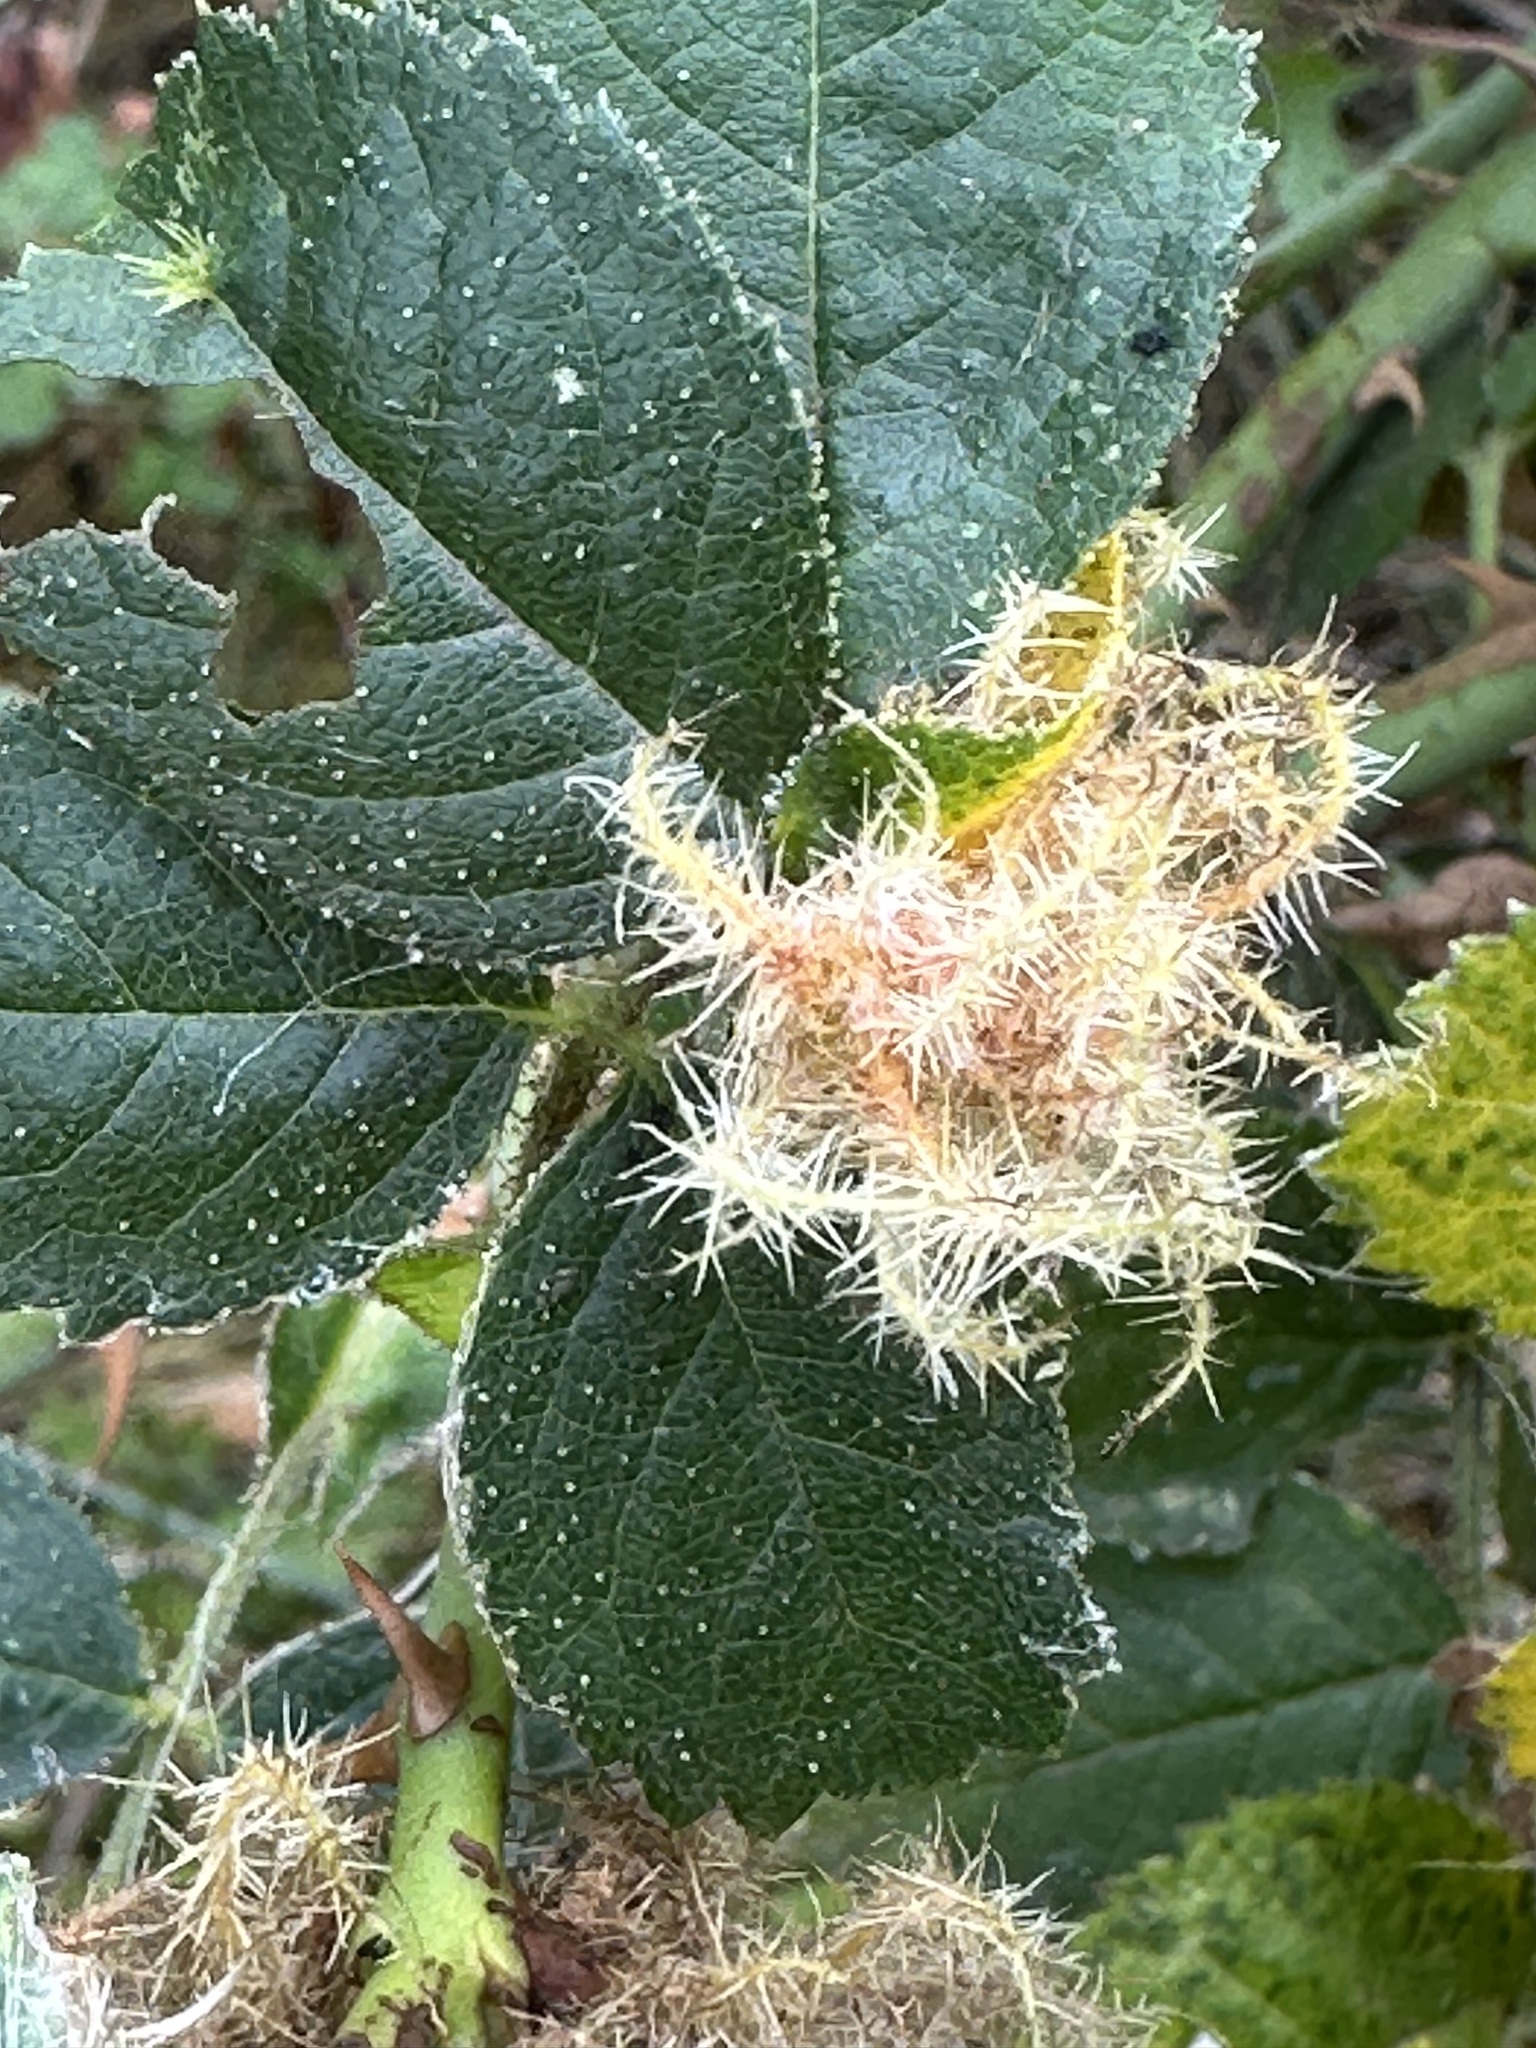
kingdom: Animalia
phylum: Arthropoda
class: Insecta
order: Hymenoptera
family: Cynipidae
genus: Diplolepis
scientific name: Diplolepis rosae
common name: Bedeguar gall
